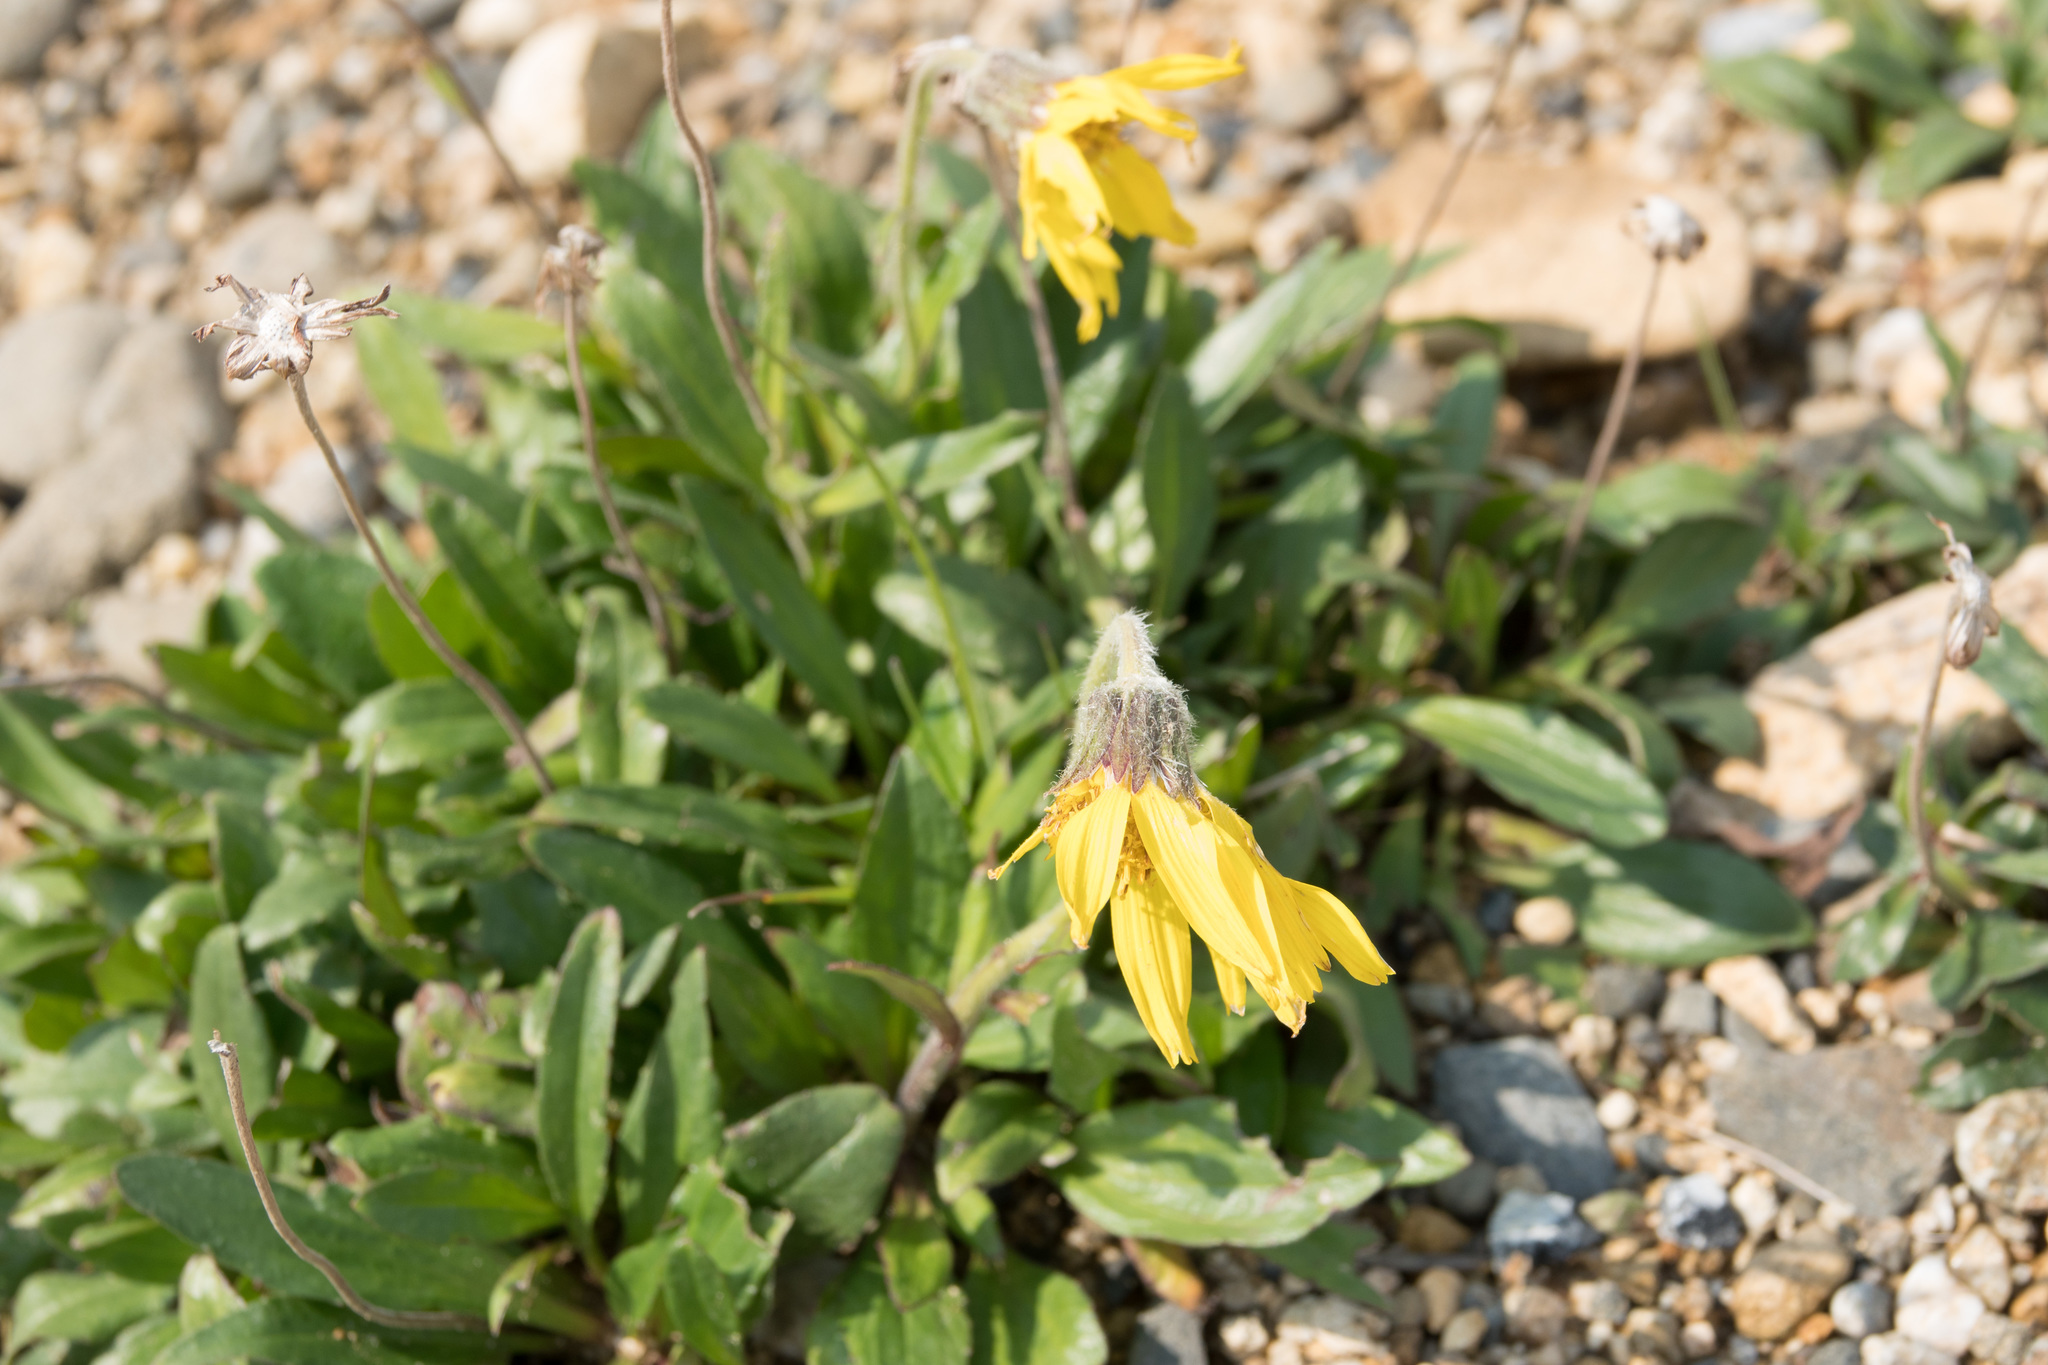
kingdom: Plantae
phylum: Tracheophyta
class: Magnoliopsida
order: Asterales
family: Asteraceae
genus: Arnica
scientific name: Arnica lessingii
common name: Nodding arnica
